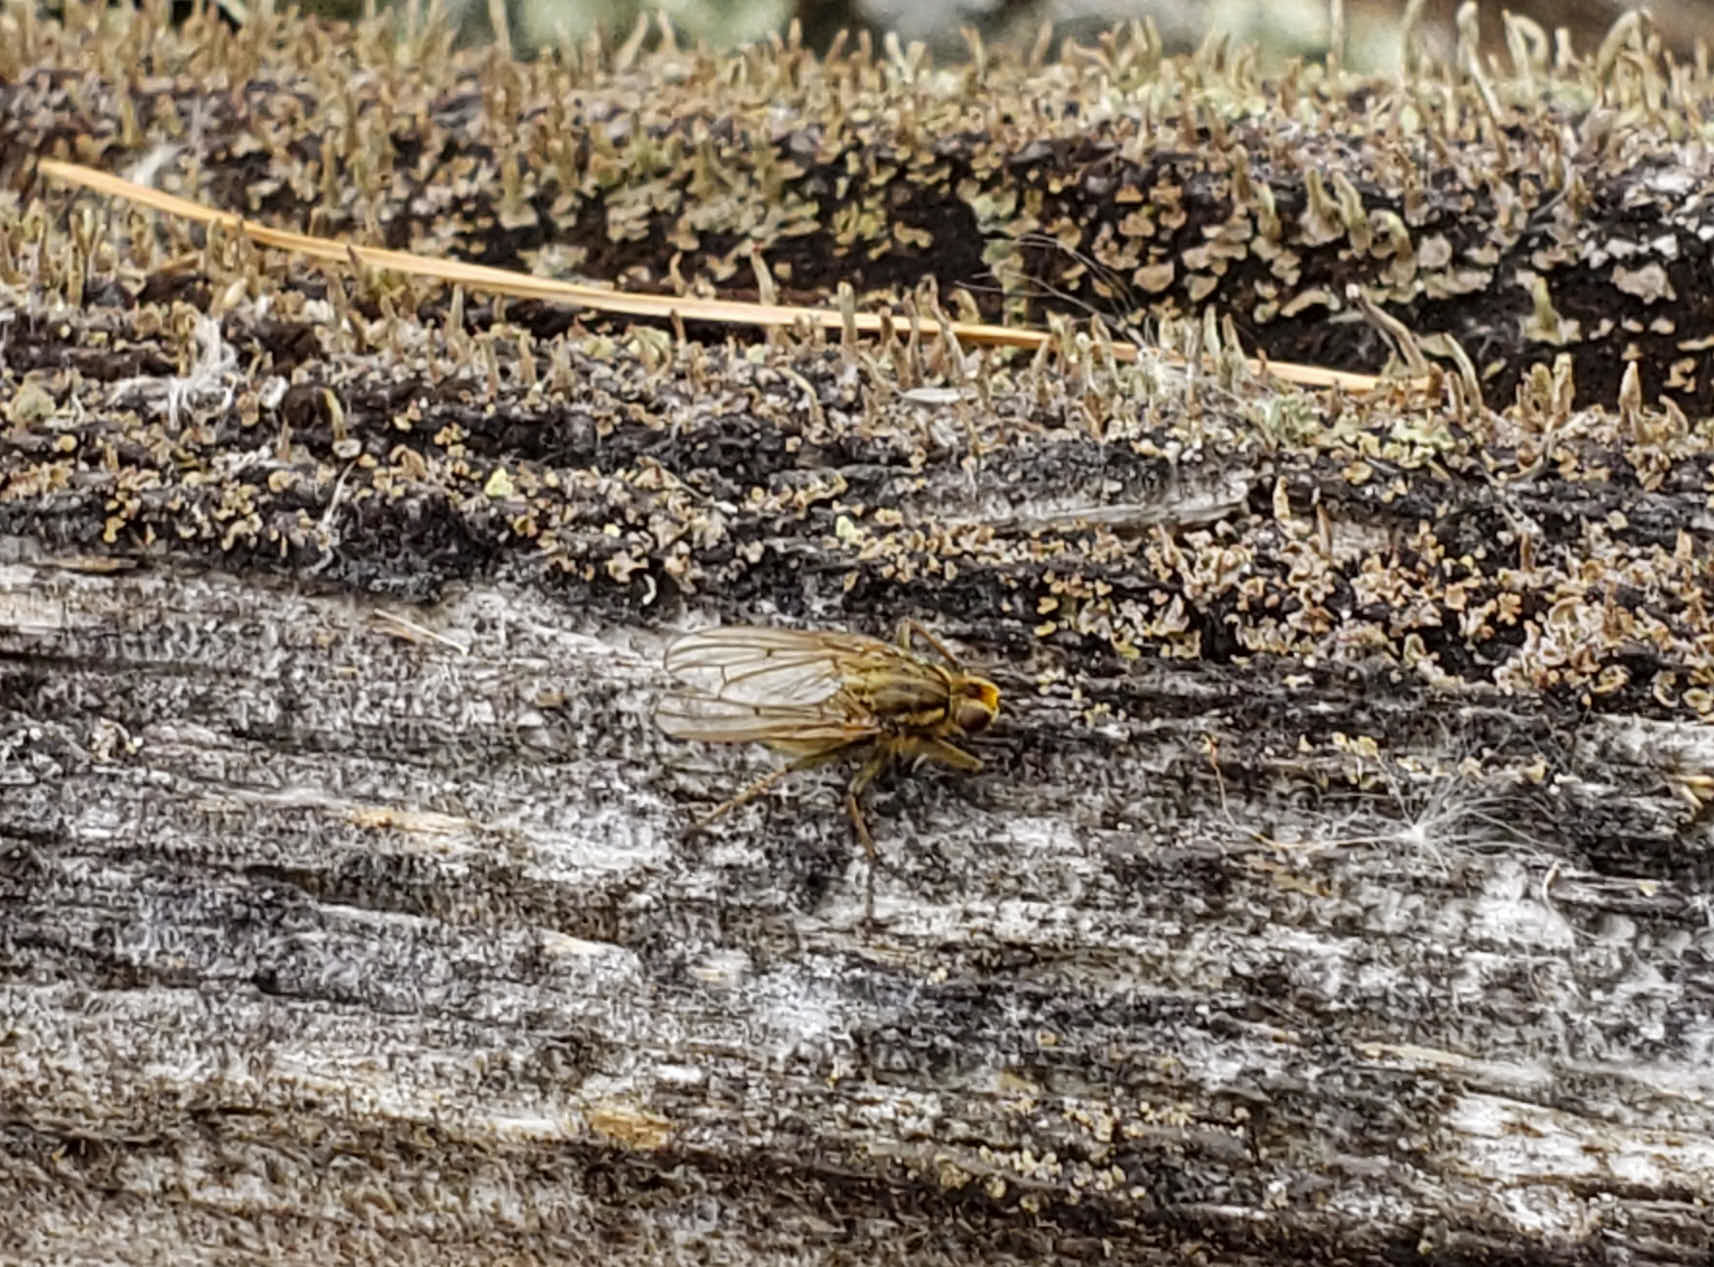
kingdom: Animalia
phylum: Arthropoda
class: Insecta
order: Diptera
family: Scathophagidae
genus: Scathophaga
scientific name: Scathophaga stercoraria
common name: Yellow dung fly
